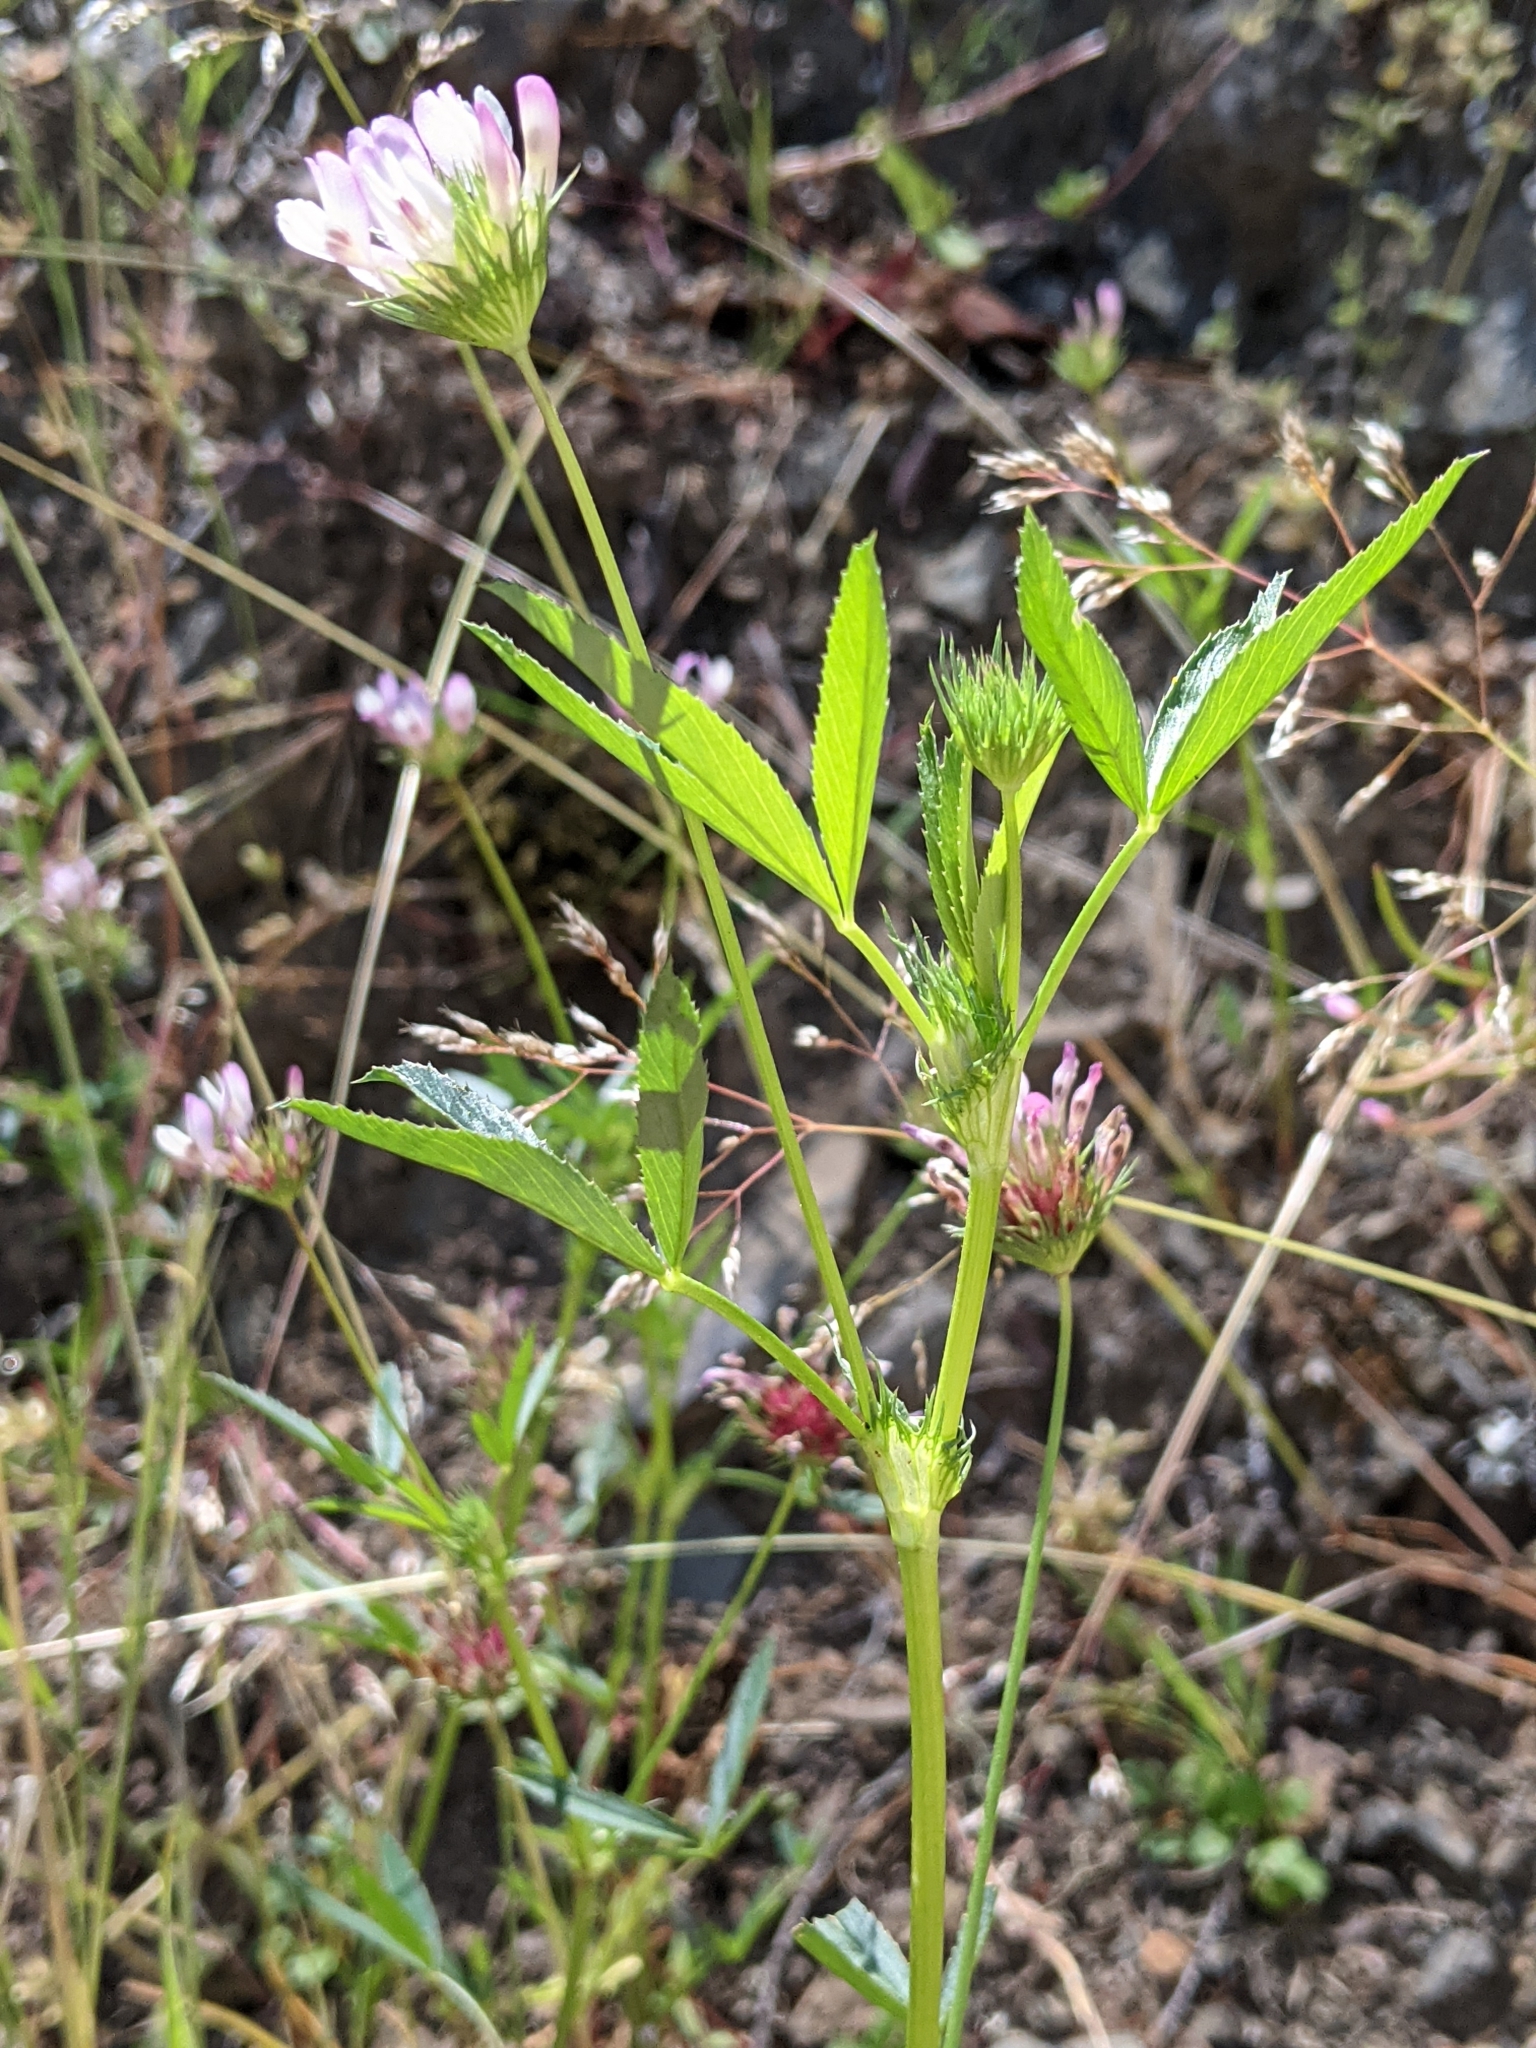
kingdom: Plantae
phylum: Tracheophyta
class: Magnoliopsida
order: Fabales
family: Fabaceae
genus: Trifolium
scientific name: Trifolium willdenovii
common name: Tomcat clover
